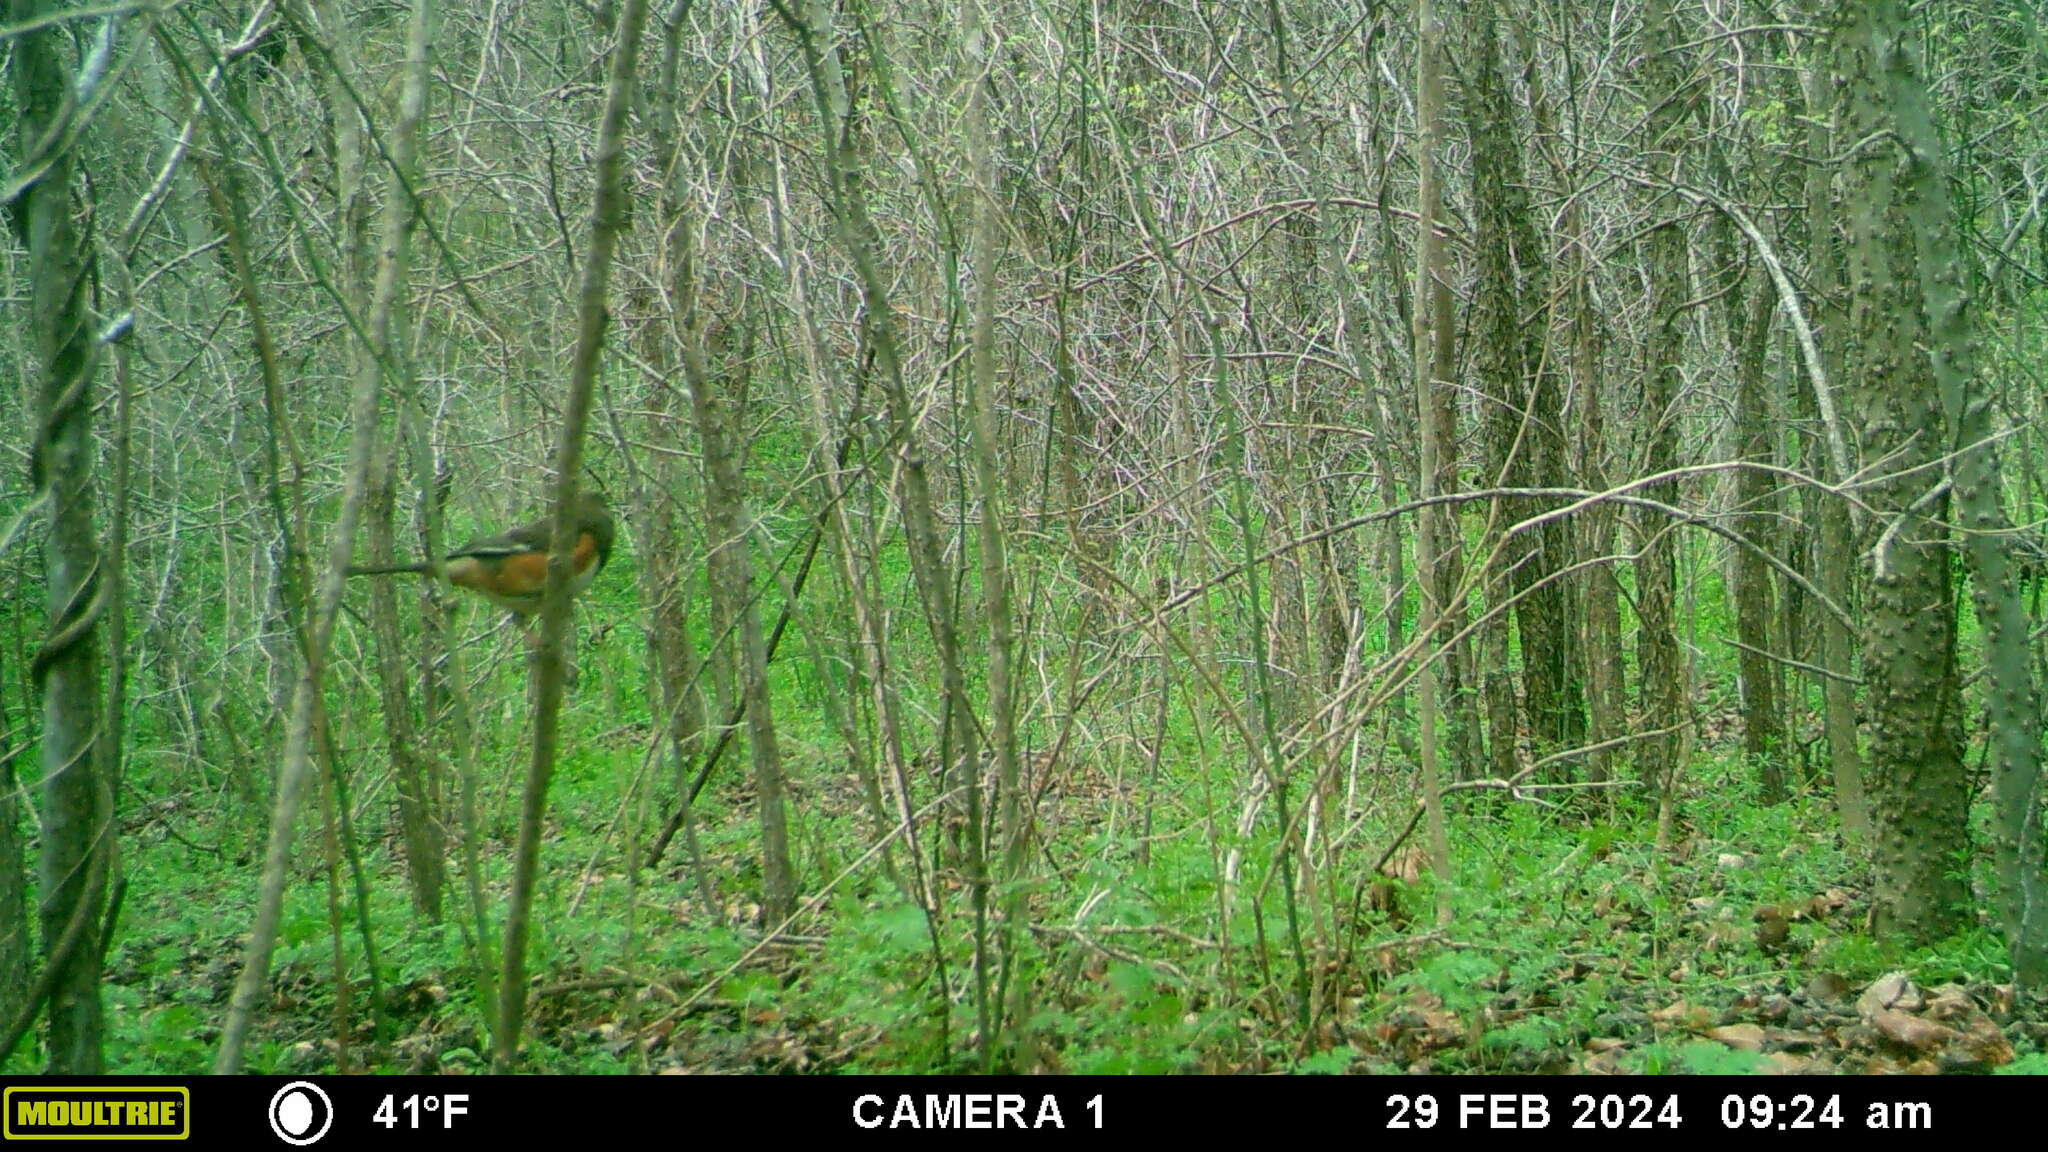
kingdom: Animalia
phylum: Chordata
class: Aves
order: Passeriformes
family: Passerellidae
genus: Pipilo
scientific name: Pipilo erythrophthalmus
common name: Eastern towhee
